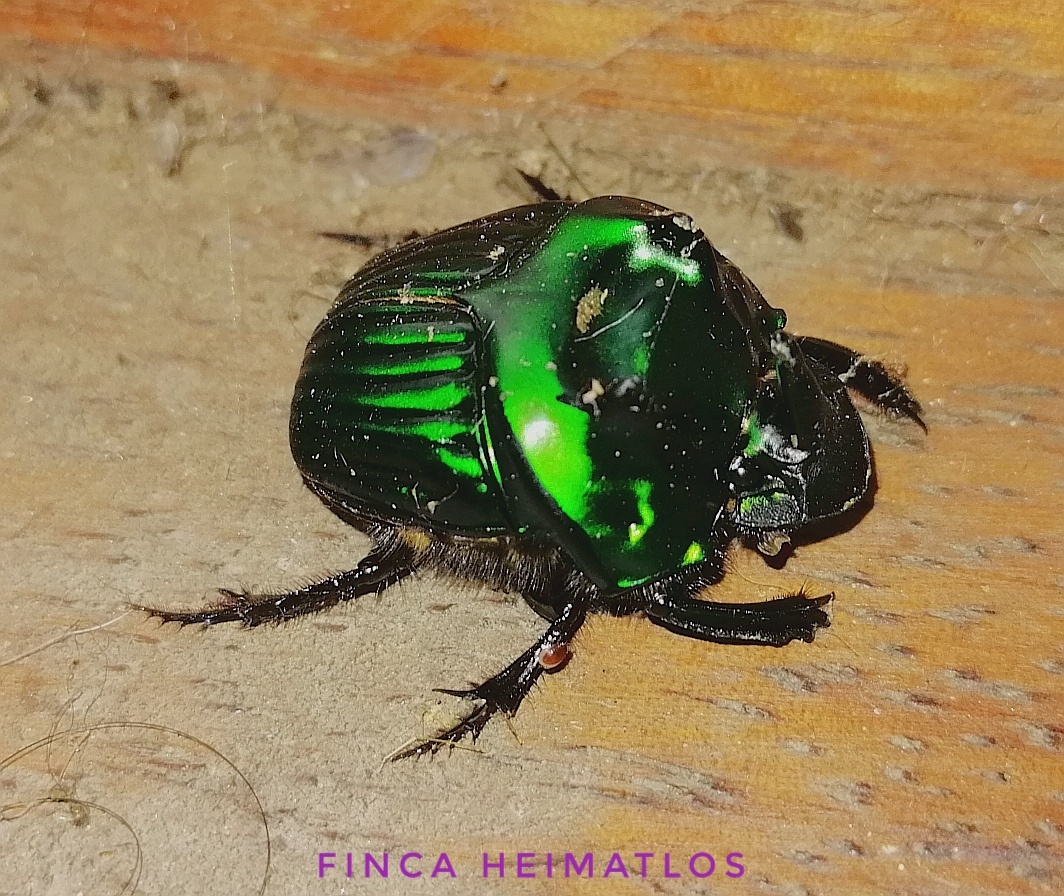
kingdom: Animalia
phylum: Arthropoda
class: Insecta
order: Coleoptera
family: Scarabaeidae
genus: Oxysternon
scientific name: Oxysternon conspicillatum
